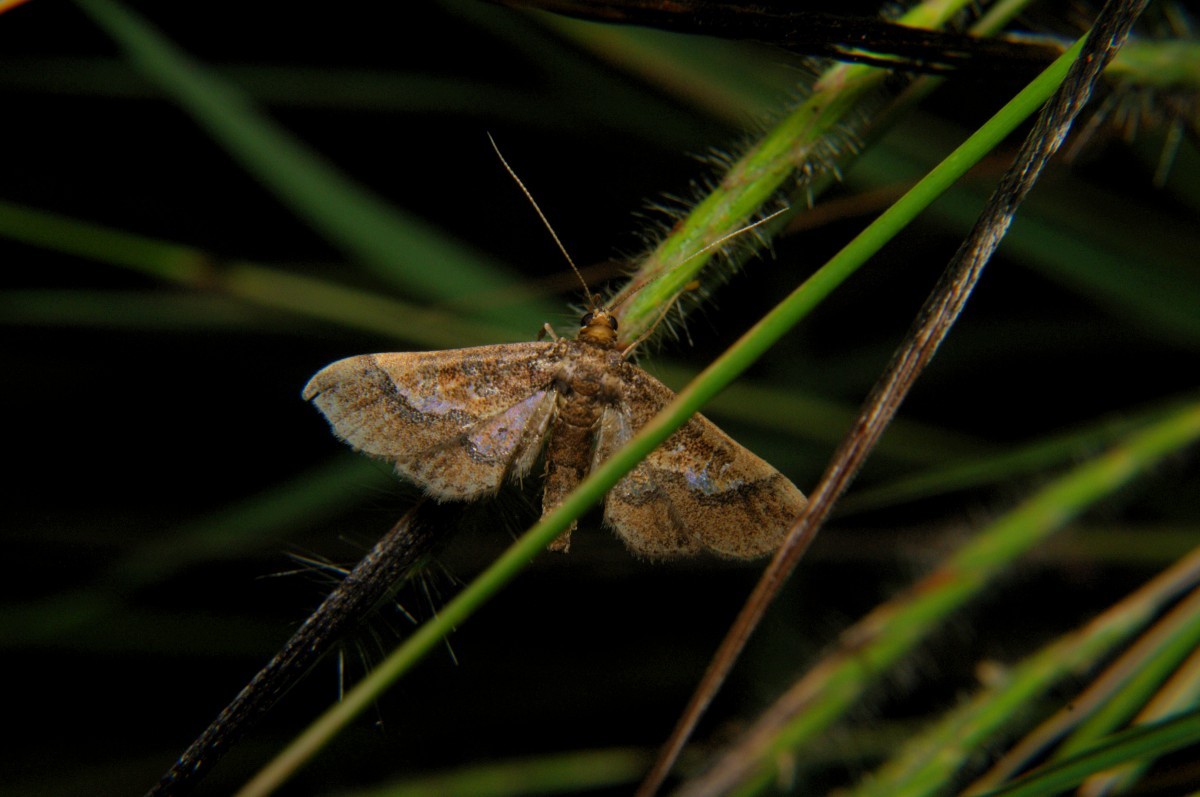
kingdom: Animalia
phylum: Arthropoda
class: Insecta
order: Lepidoptera
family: Crambidae
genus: Hydriris
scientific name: Hydriris ornatalis
